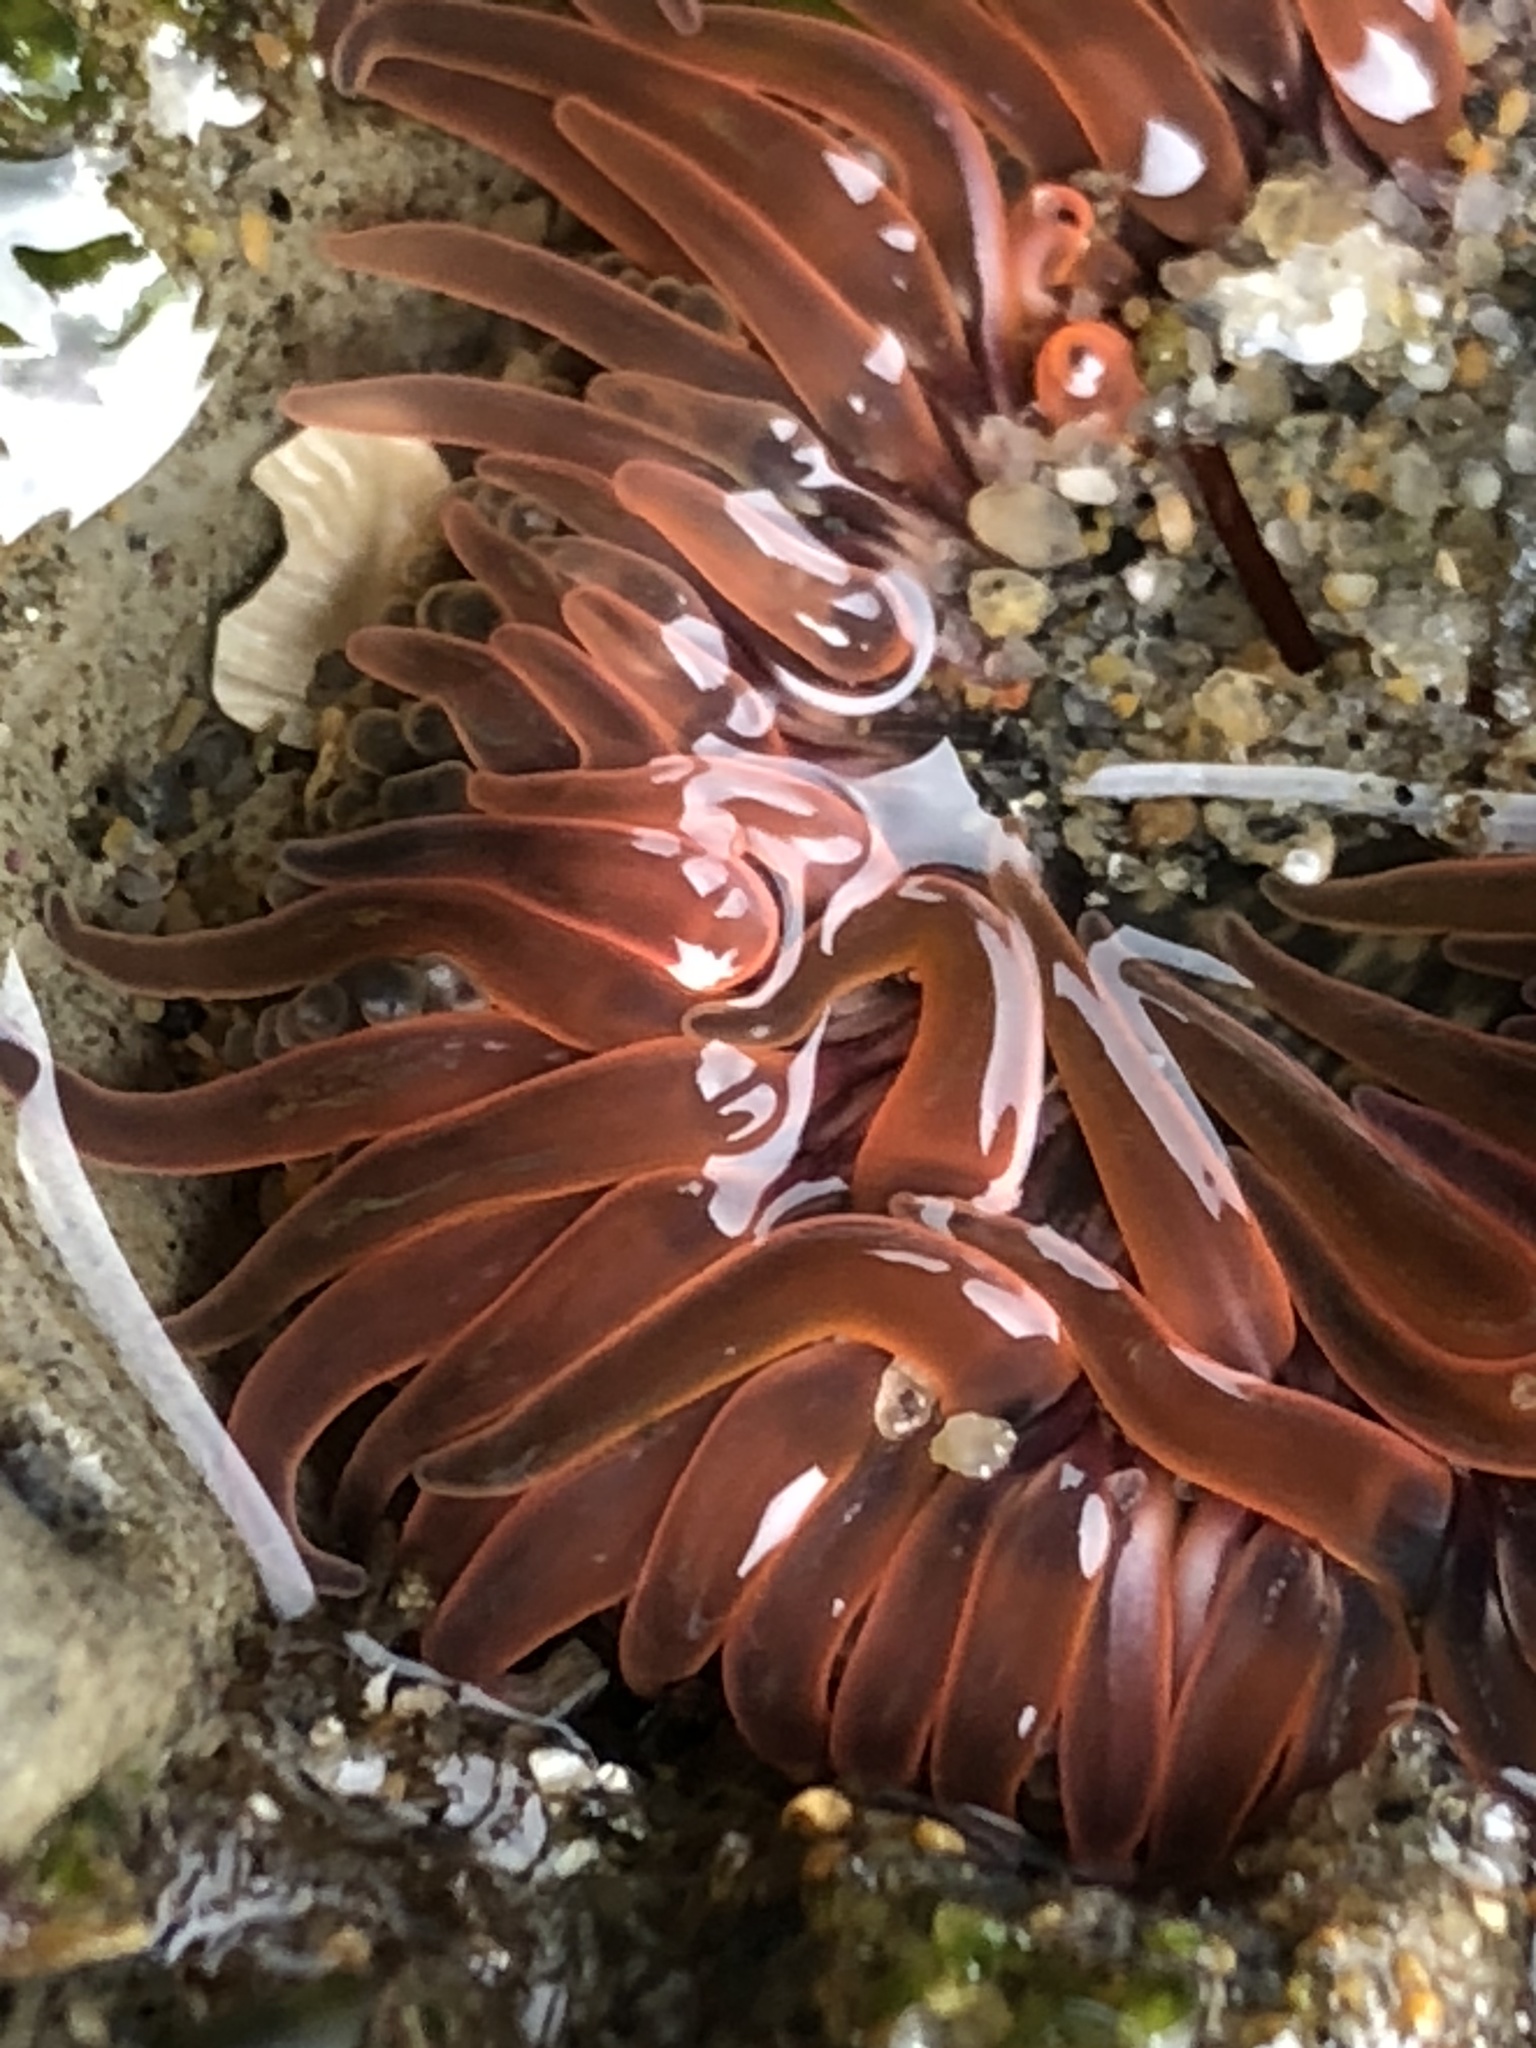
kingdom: Animalia
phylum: Cnidaria
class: Anthozoa
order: Actiniaria
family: Actiniidae
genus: Anthopleura
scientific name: Anthopleura artemisia
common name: Buried sea anemone
